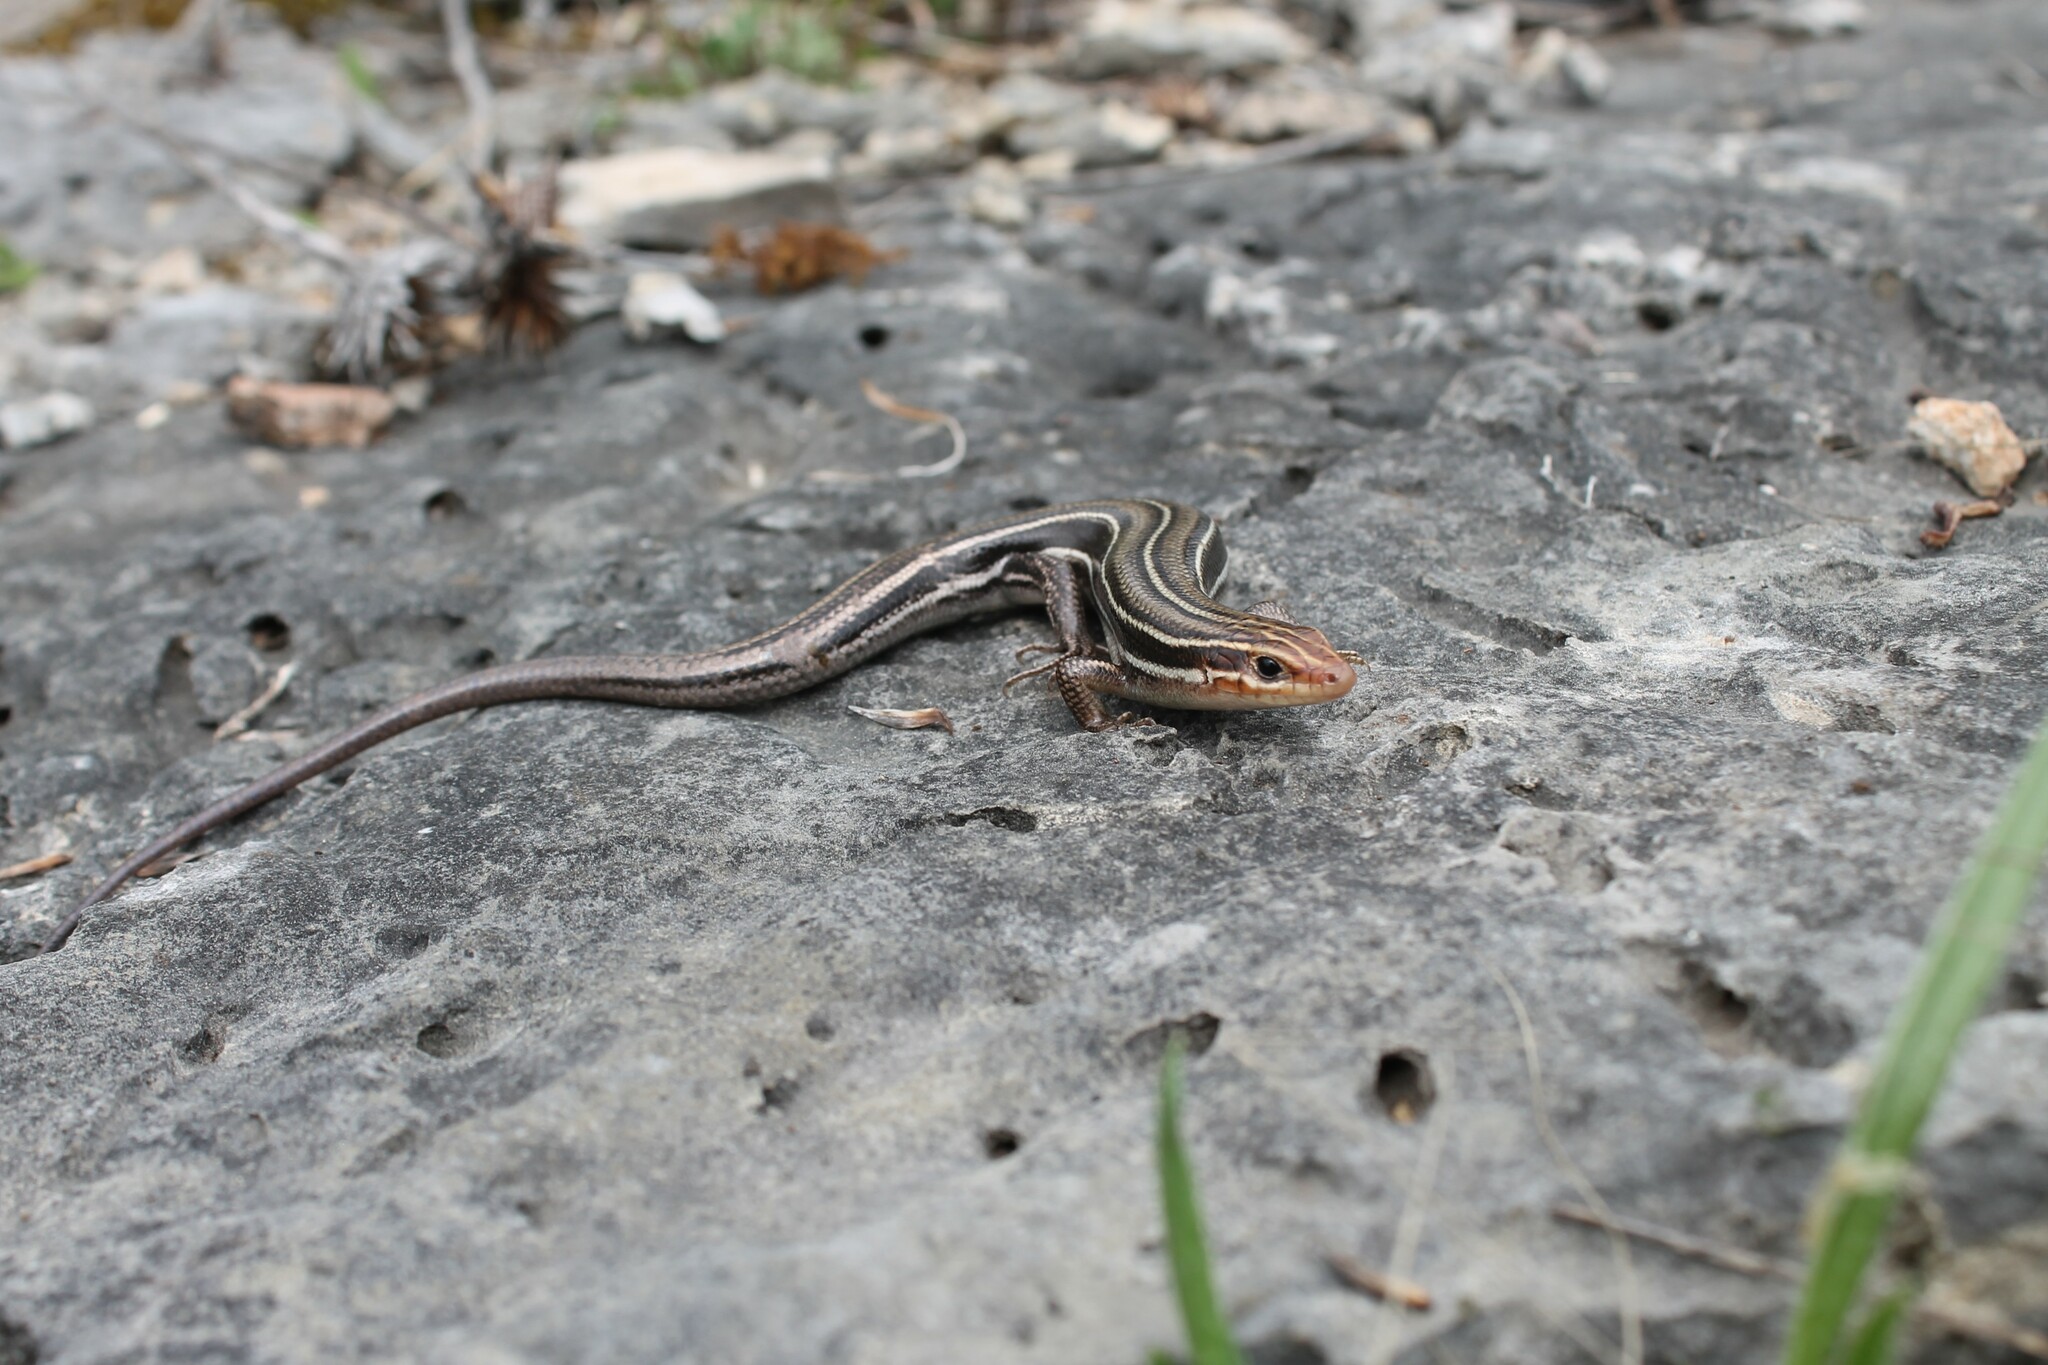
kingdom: Animalia
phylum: Chordata
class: Squamata
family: Scincidae
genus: Plestiodon
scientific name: Plestiodon inexpectatus
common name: Southeastern five-lined skink
